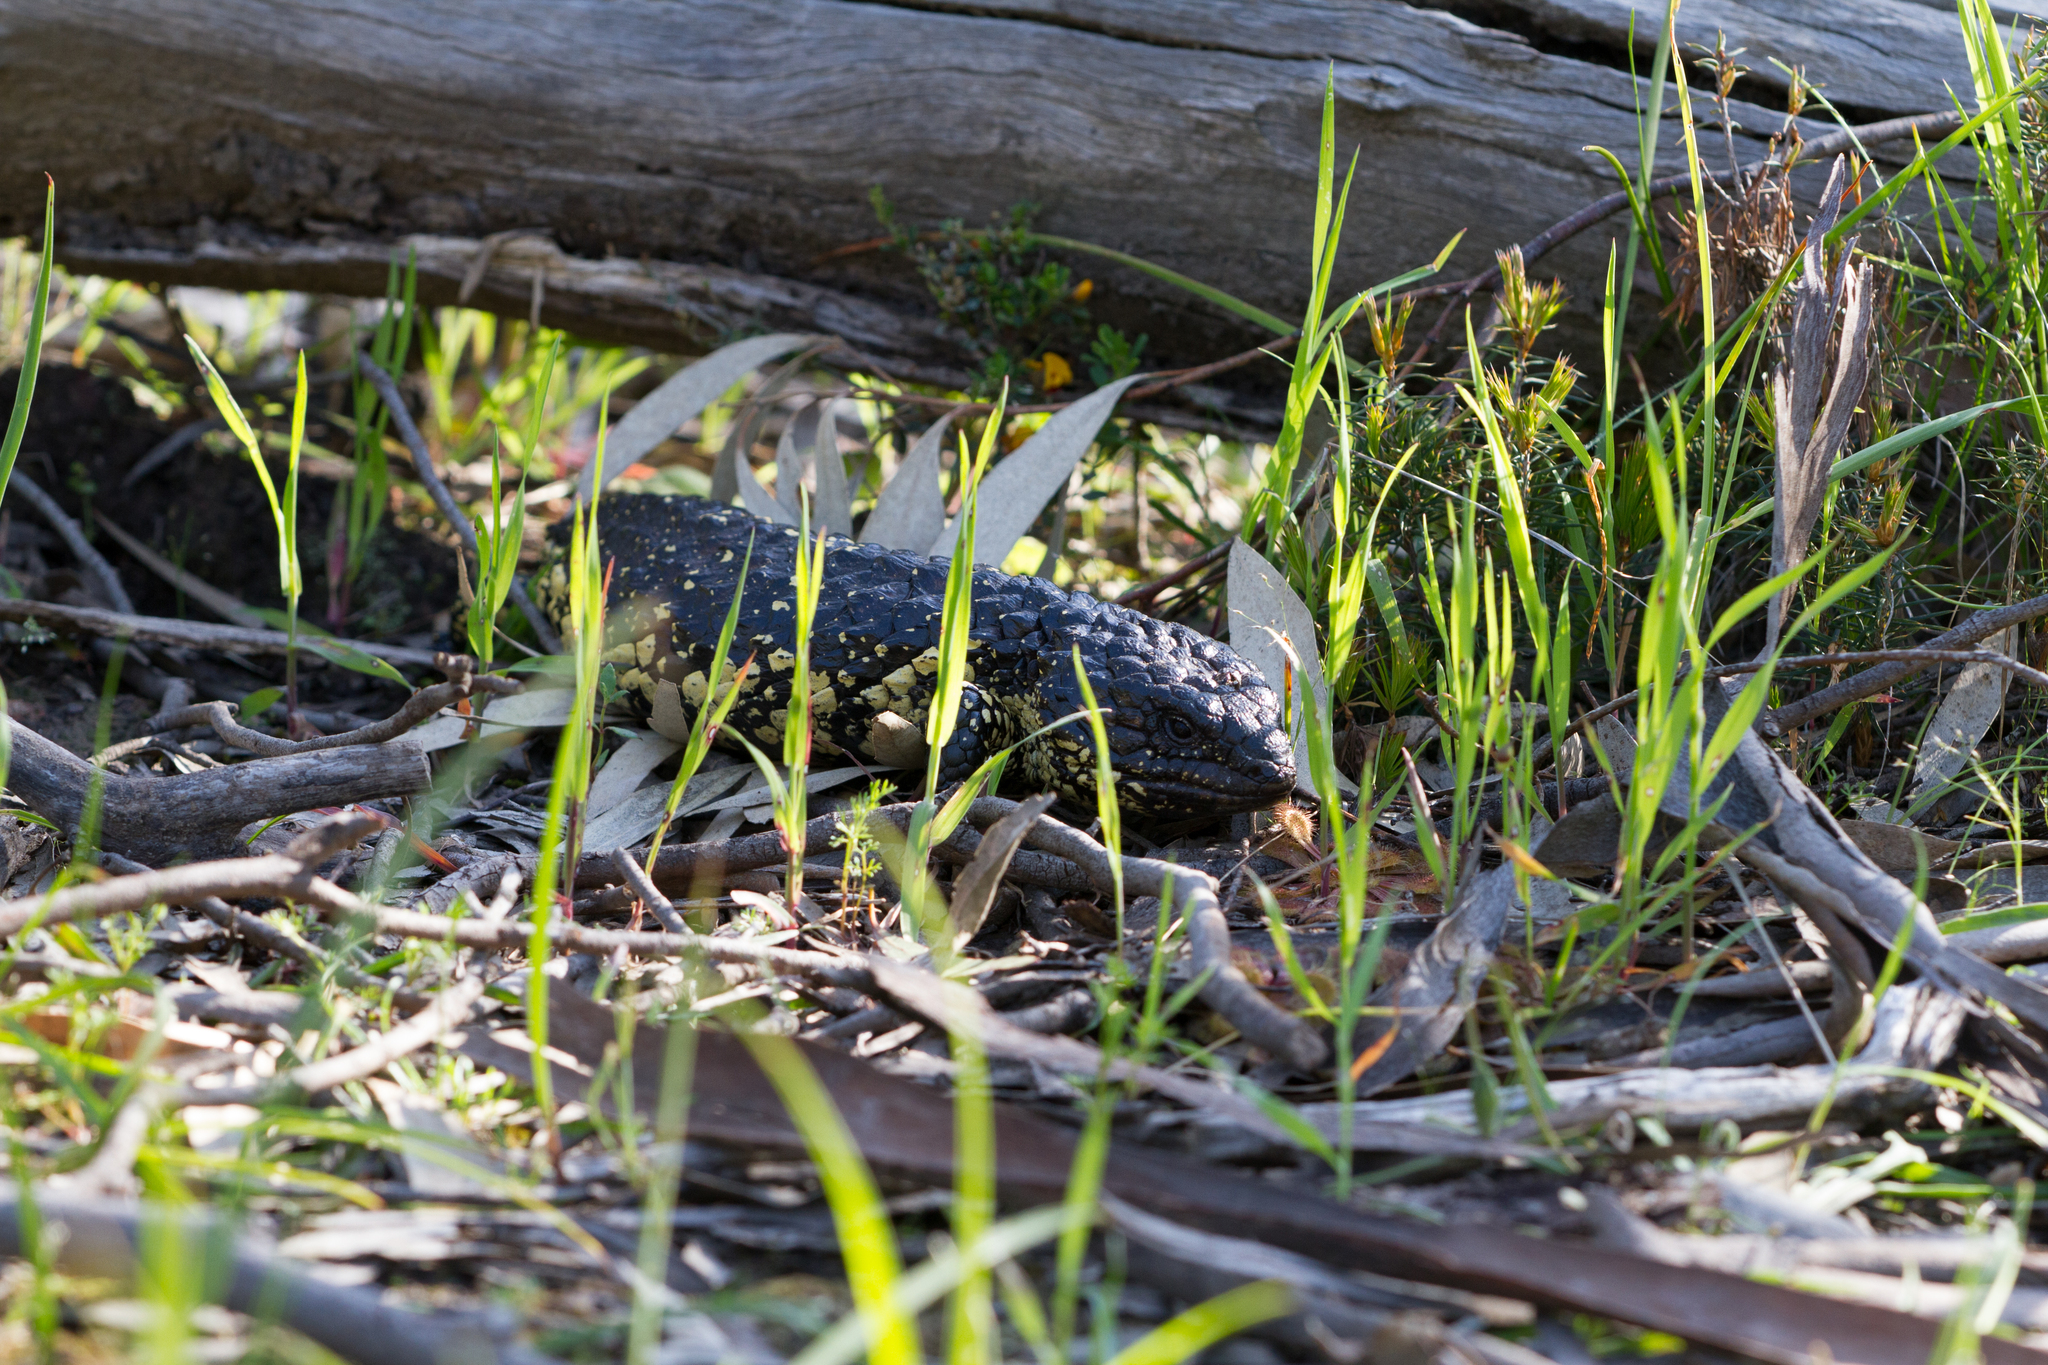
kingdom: Animalia
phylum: Chordata
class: Squamata
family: Scincidae
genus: Tiliqua
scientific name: Tiliqua rugosa
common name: Pinecone lizard
